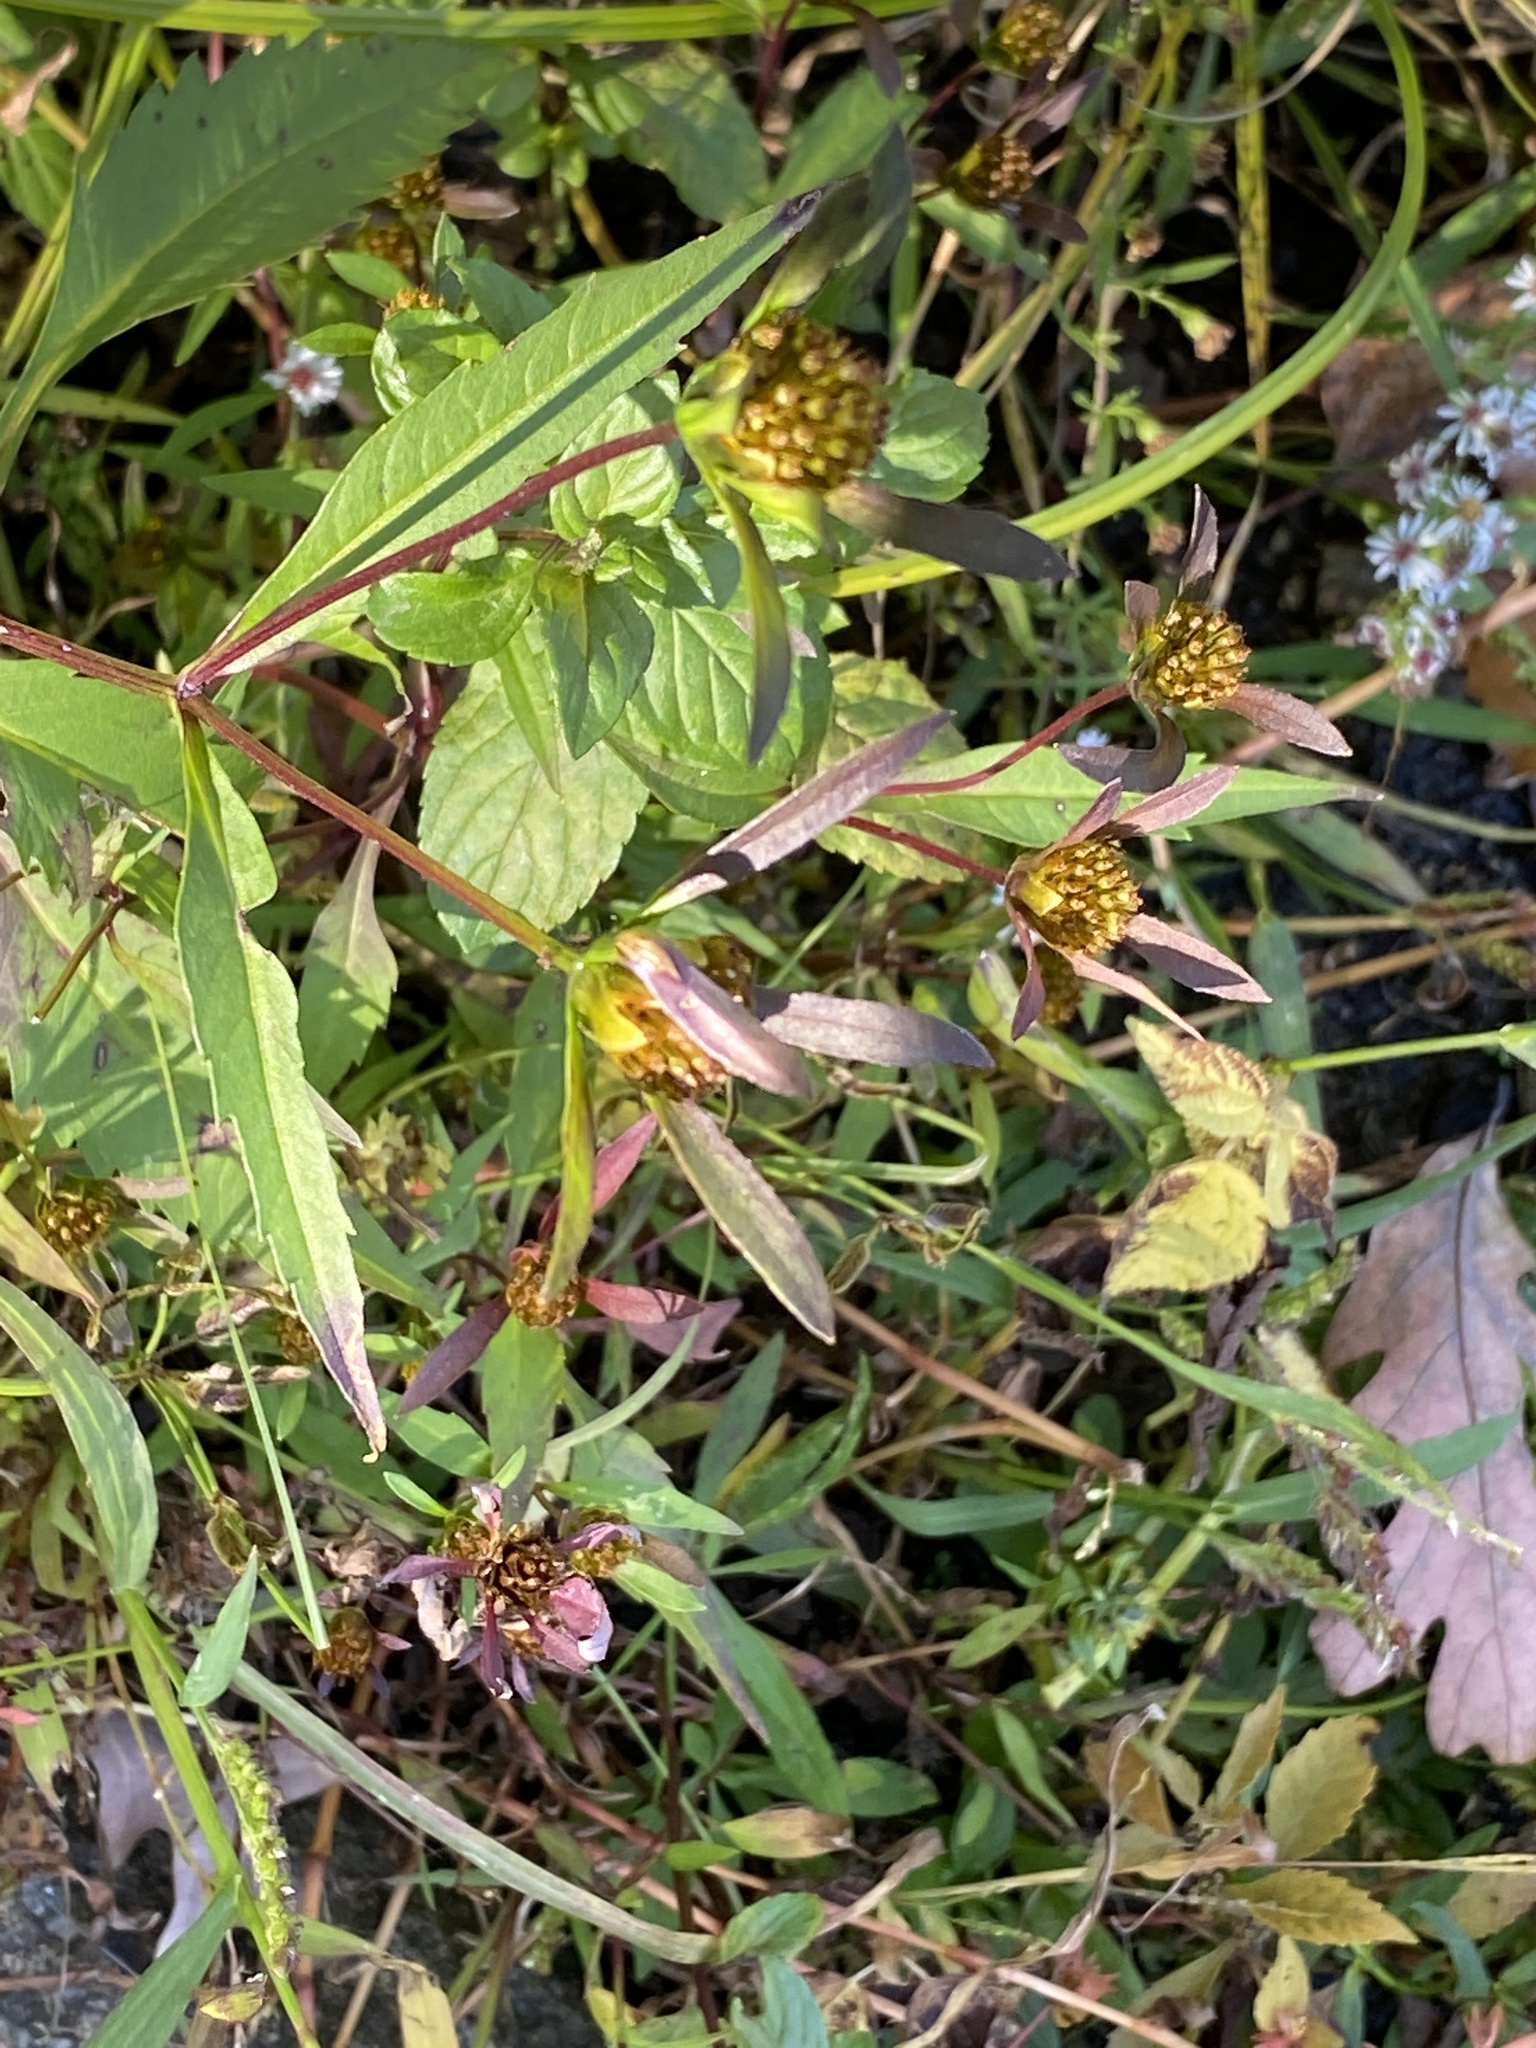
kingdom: Plantae
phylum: Tracheophyta
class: Magnoliopsida
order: Asterales
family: Asteraceae
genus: Bidens
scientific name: Bidens connata
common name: London bur-marigold
